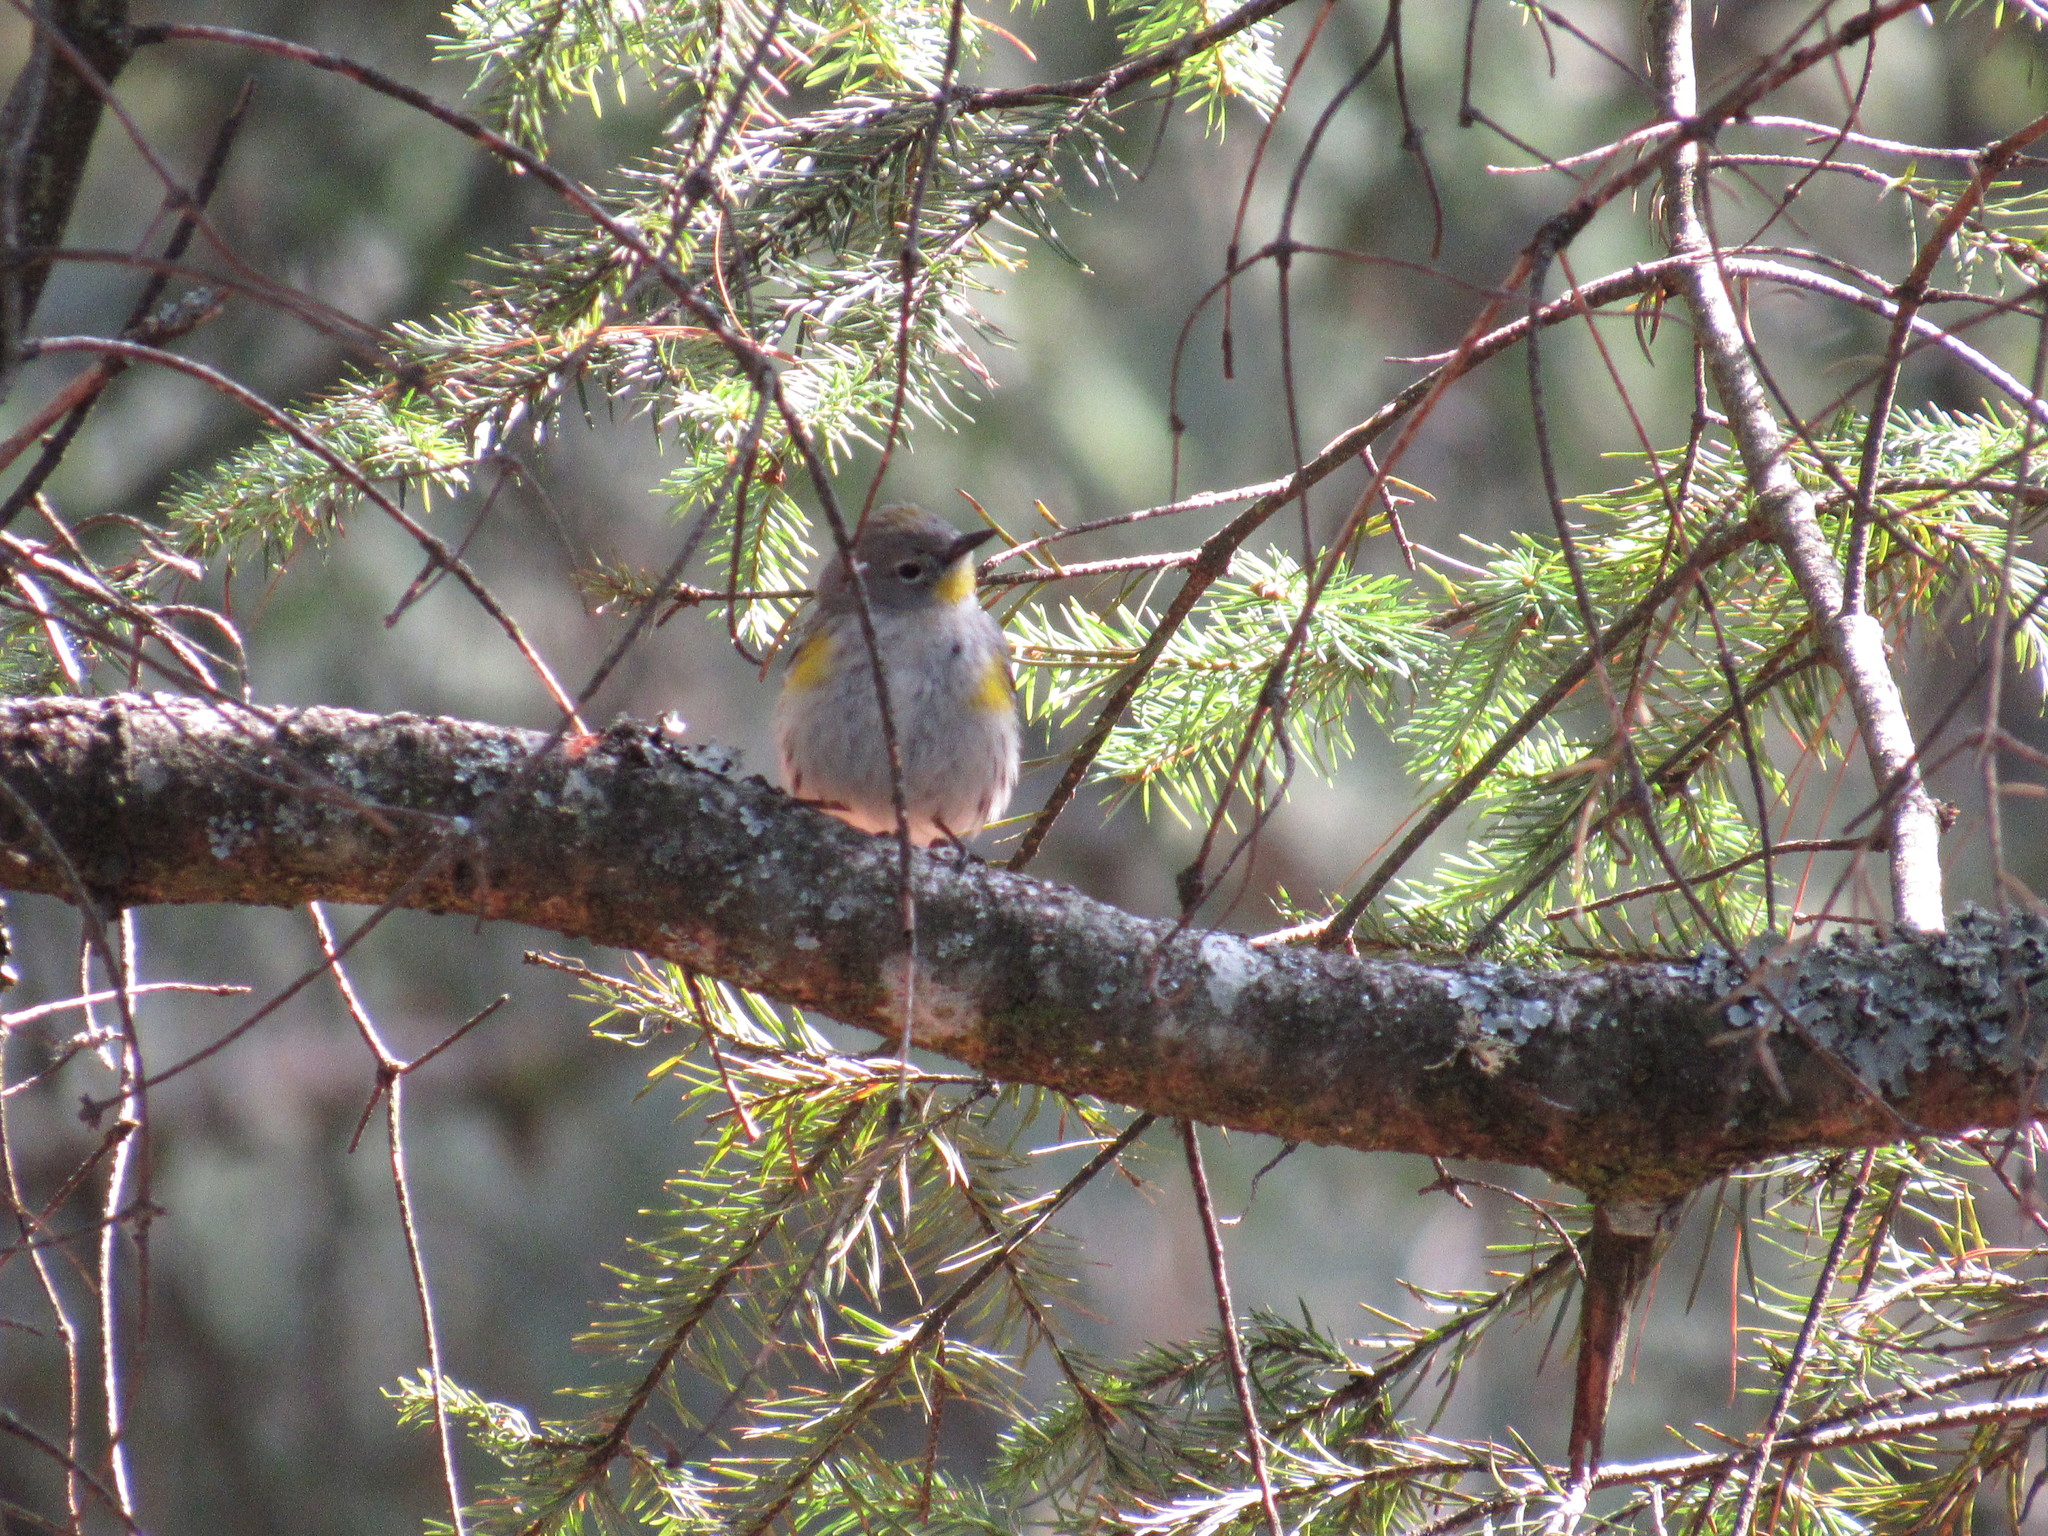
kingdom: Animalia
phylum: Chordata
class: Aves
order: Passeriformes
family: Parulidae
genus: Setophaga
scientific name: Setophaga auduboni
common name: Audubon's warbler
